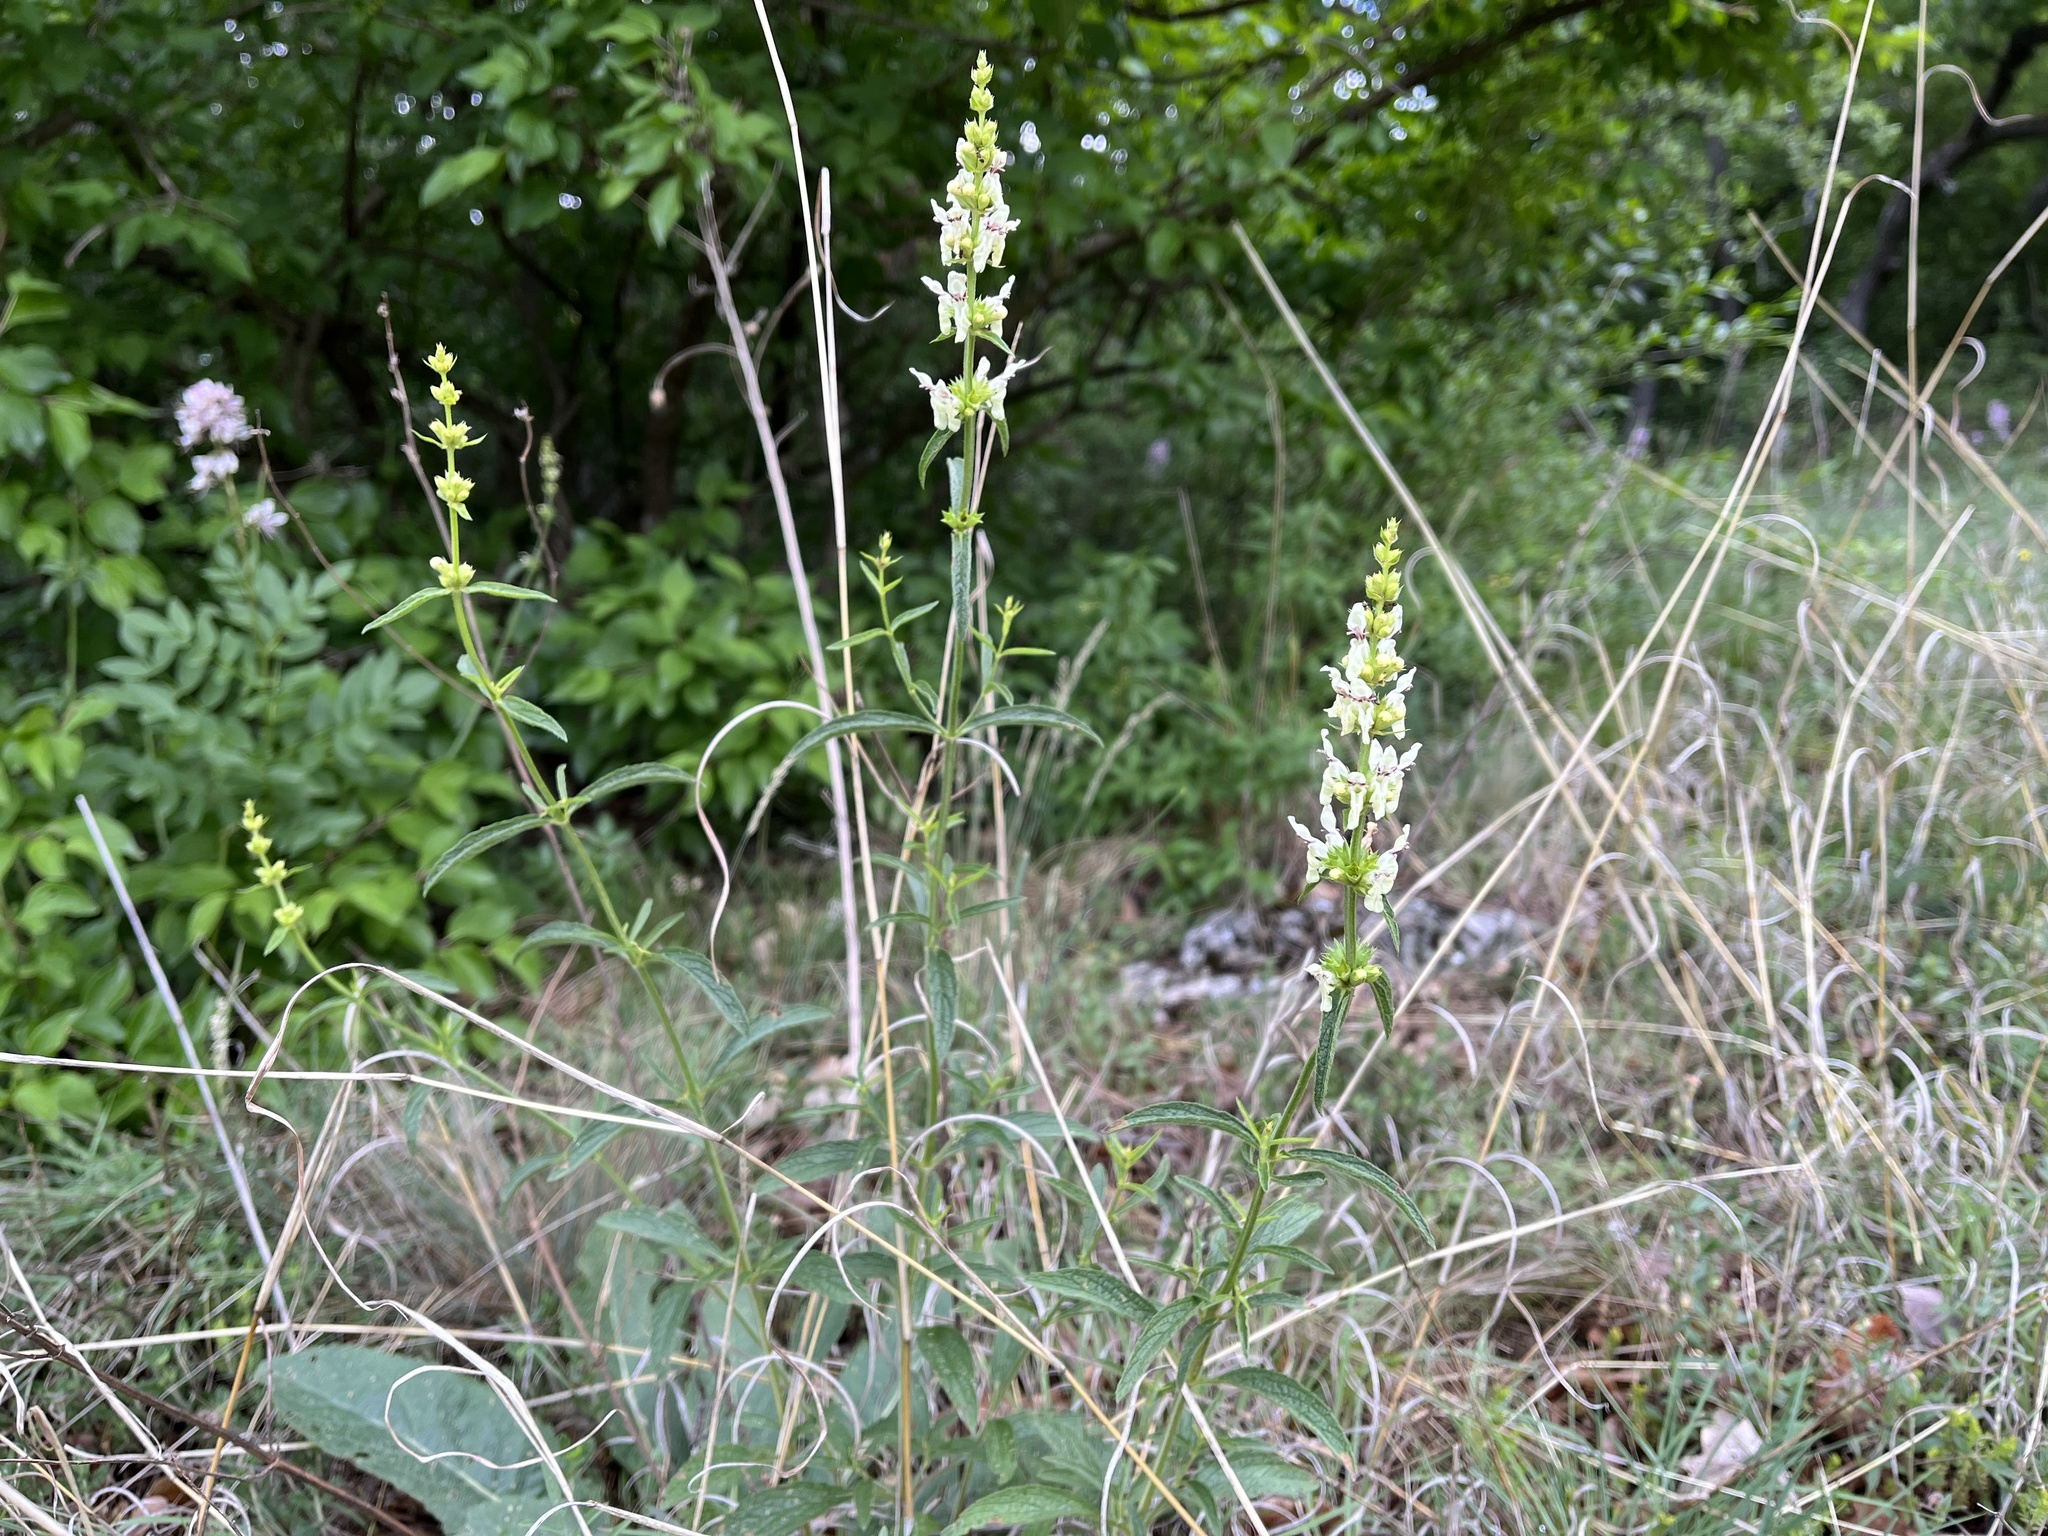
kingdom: Plantae
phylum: Tracheophyta
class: Magnoliopsida
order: Lamiales
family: Lamiaceae
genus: Stachys
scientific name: Stachys recta
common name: Perennial yellow-woundwort
